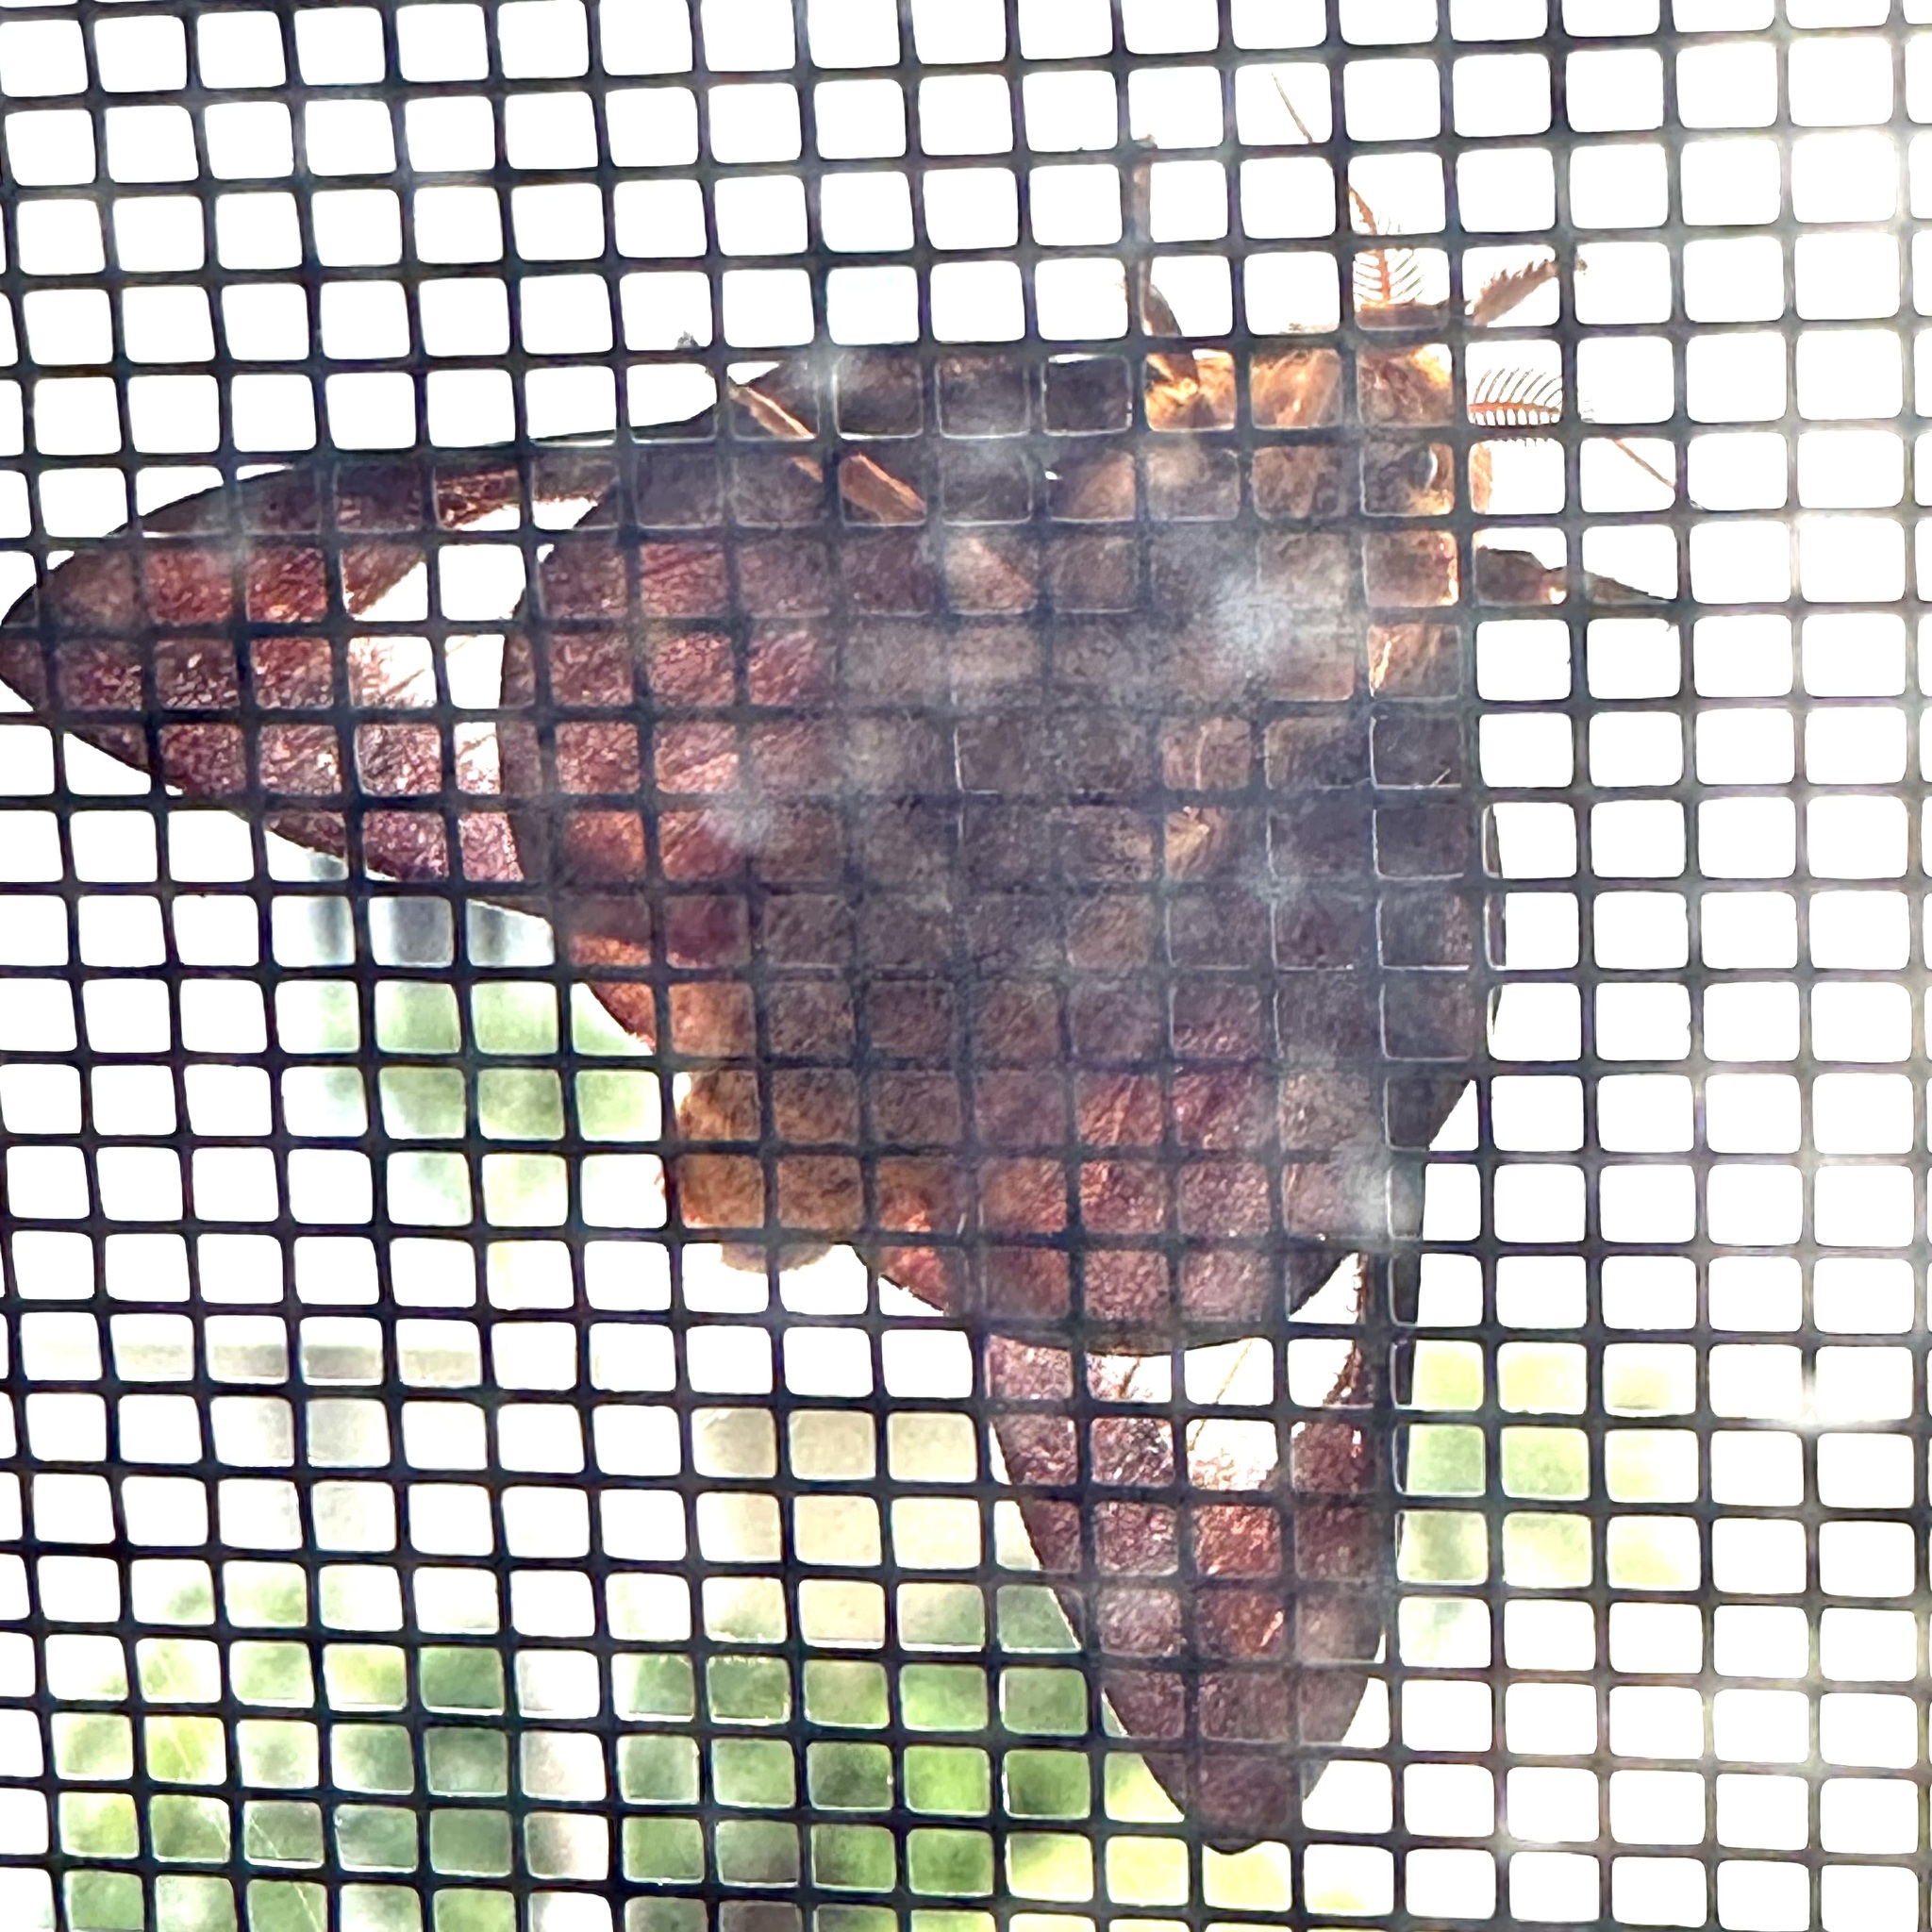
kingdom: Animalia
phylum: Arthropoda
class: Insecta
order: Lepidoptera
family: Saturniidae
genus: Anisota
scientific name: Anisota virginiensis
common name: Pink striped oakworm moth
